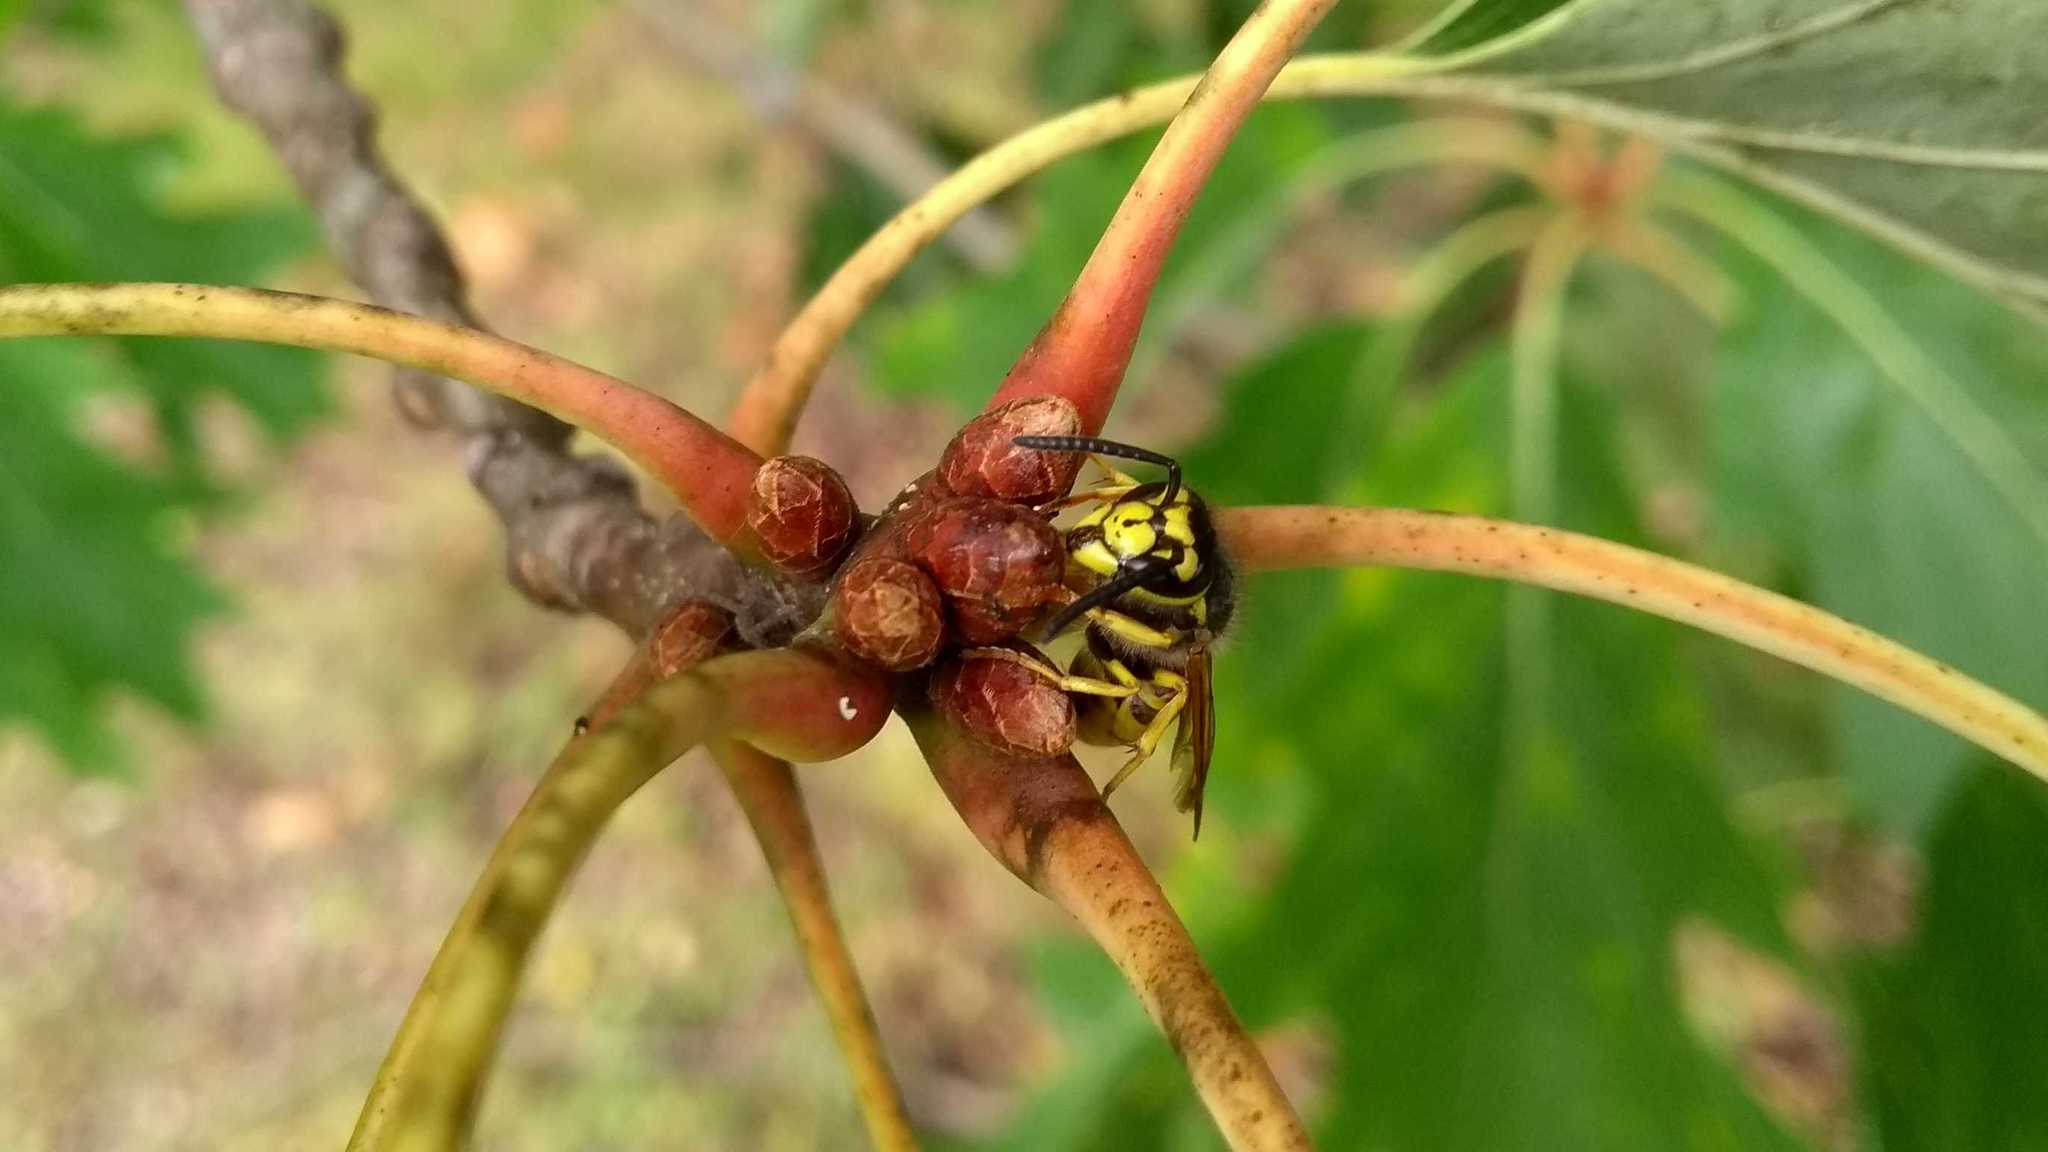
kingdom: Animalia
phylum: Arthropoda
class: Insecta
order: Hymenoptera
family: Vespidae
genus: Vespula
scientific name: Vespula germanica
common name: German wasp
